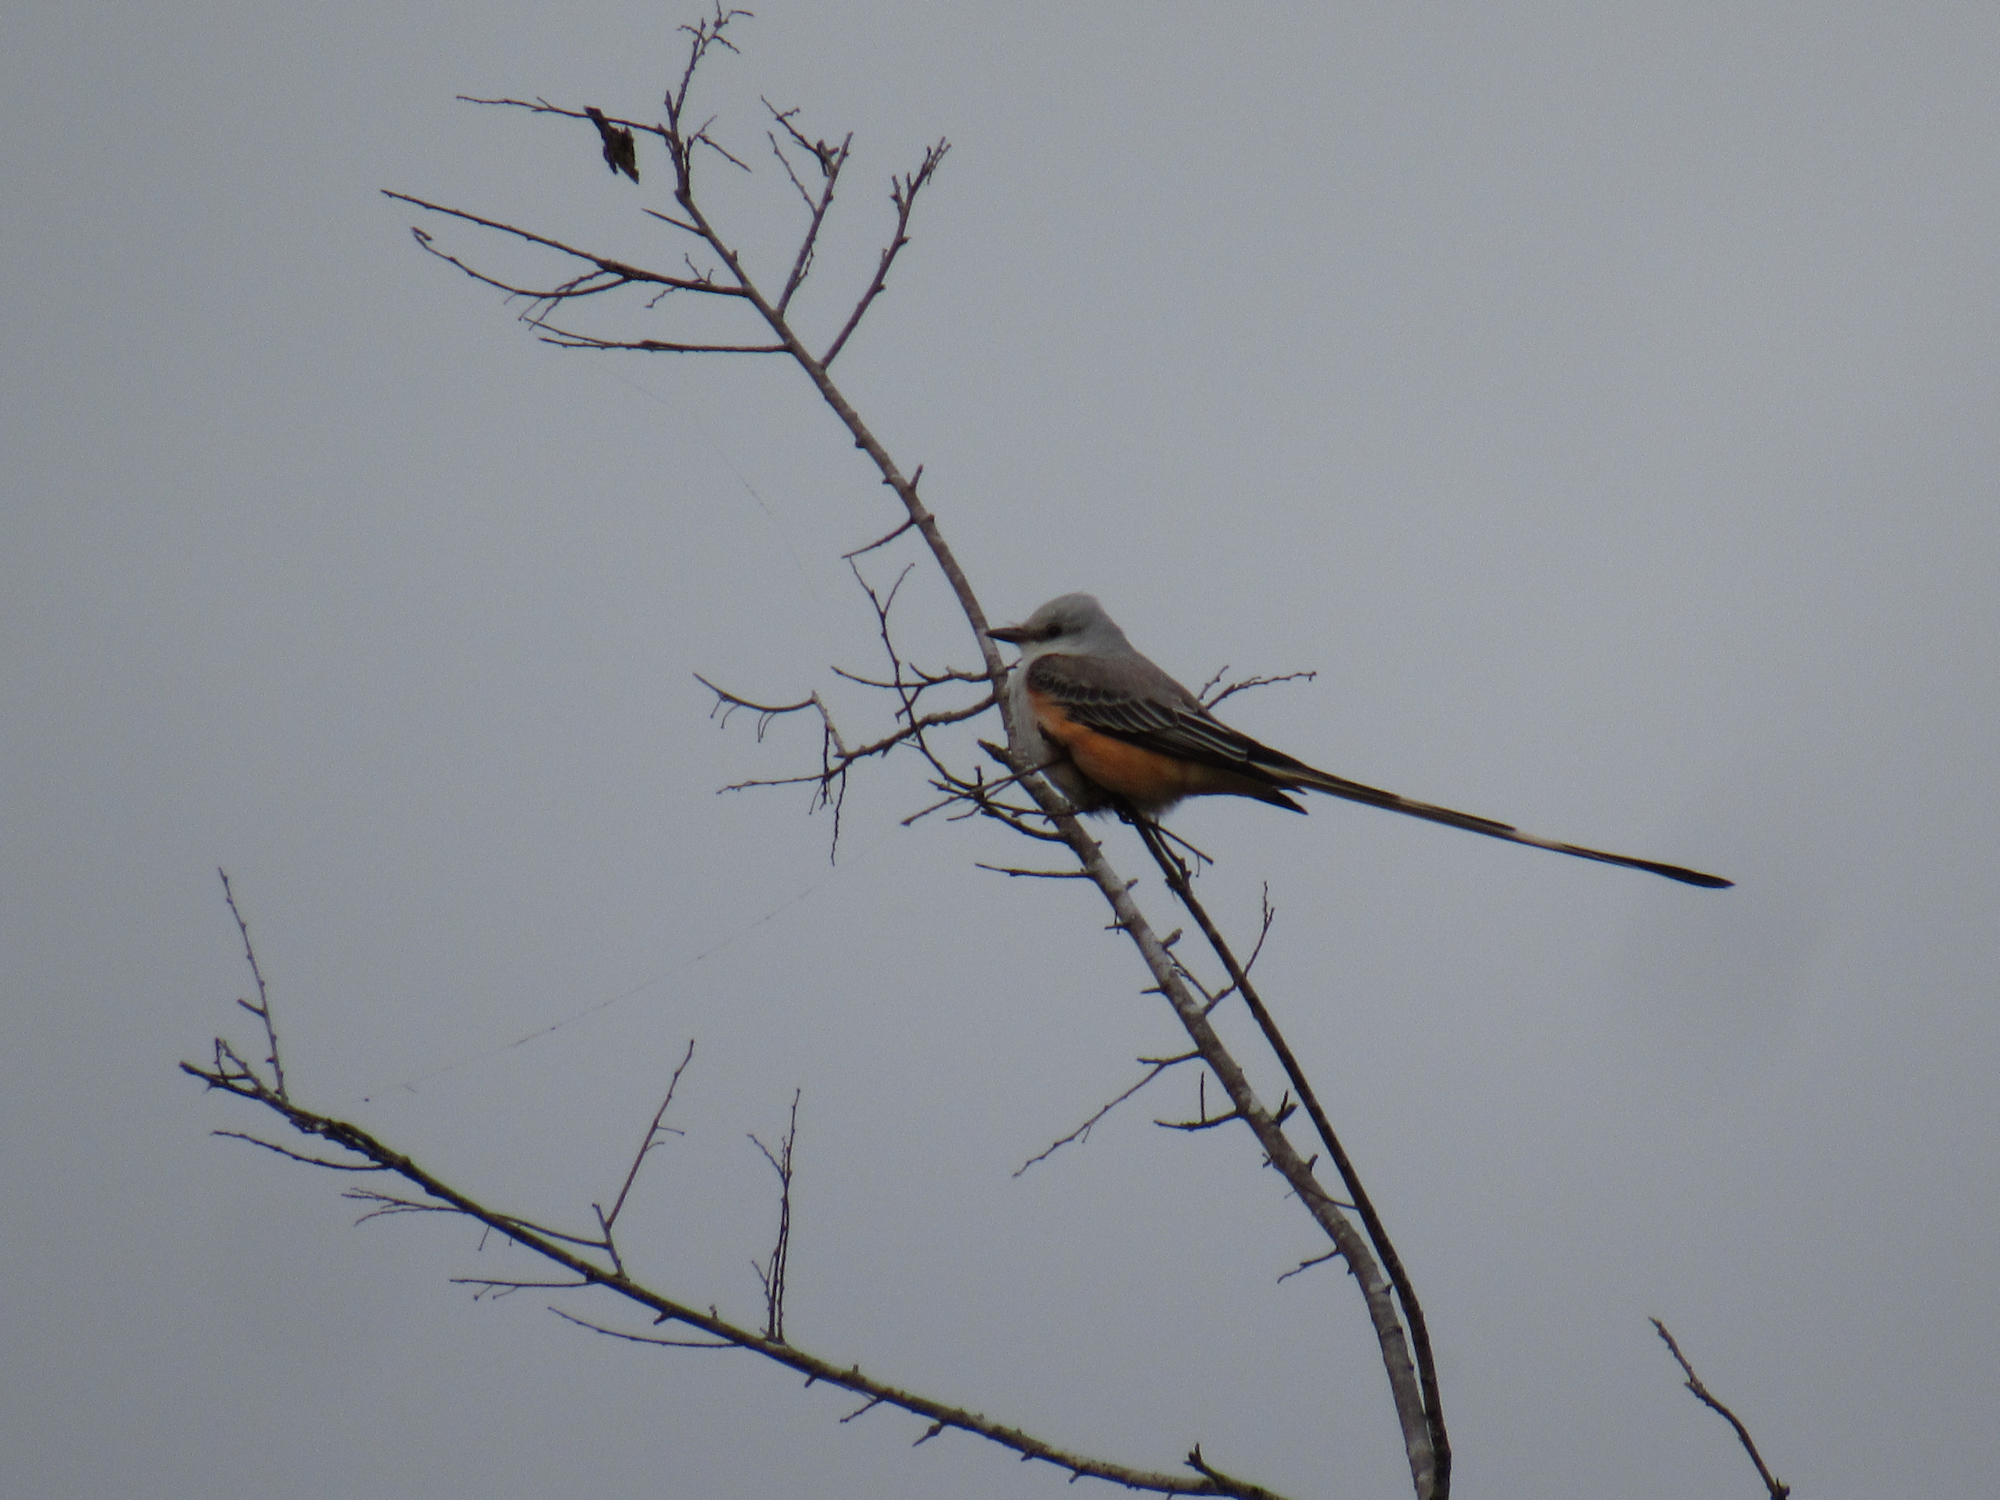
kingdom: Animalia
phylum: Chordata
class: Aves
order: Passeriformes
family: Tyrannidae
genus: Tyrannus
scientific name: Tyrannus forficatus
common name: Scissor-tailed flycatcher
